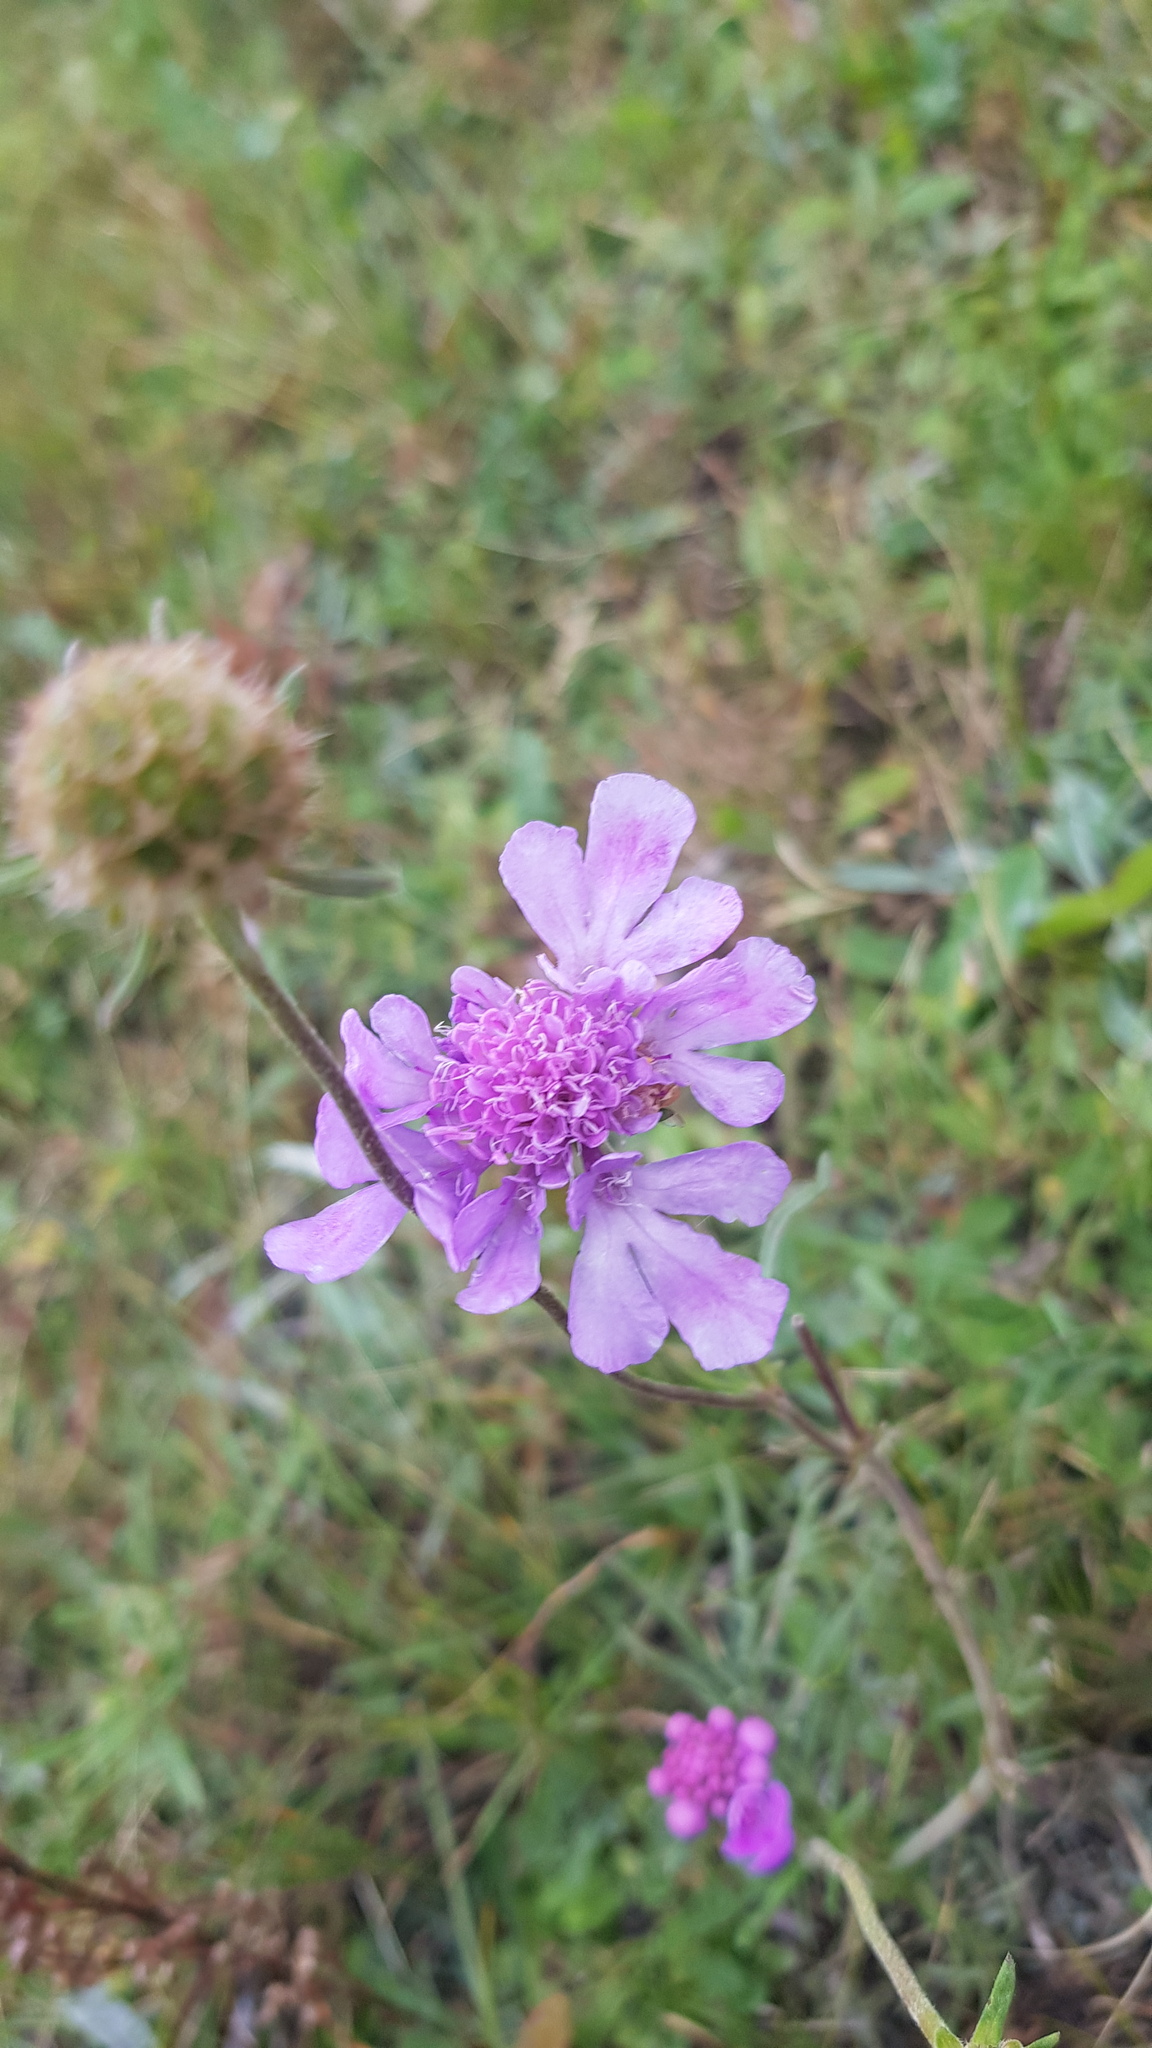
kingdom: Plantae
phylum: Tracheophyta
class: Magnoliopsida
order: Dipsacales
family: Caprifoliaceae
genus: Scabiosa
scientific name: Scabiosa comosa
